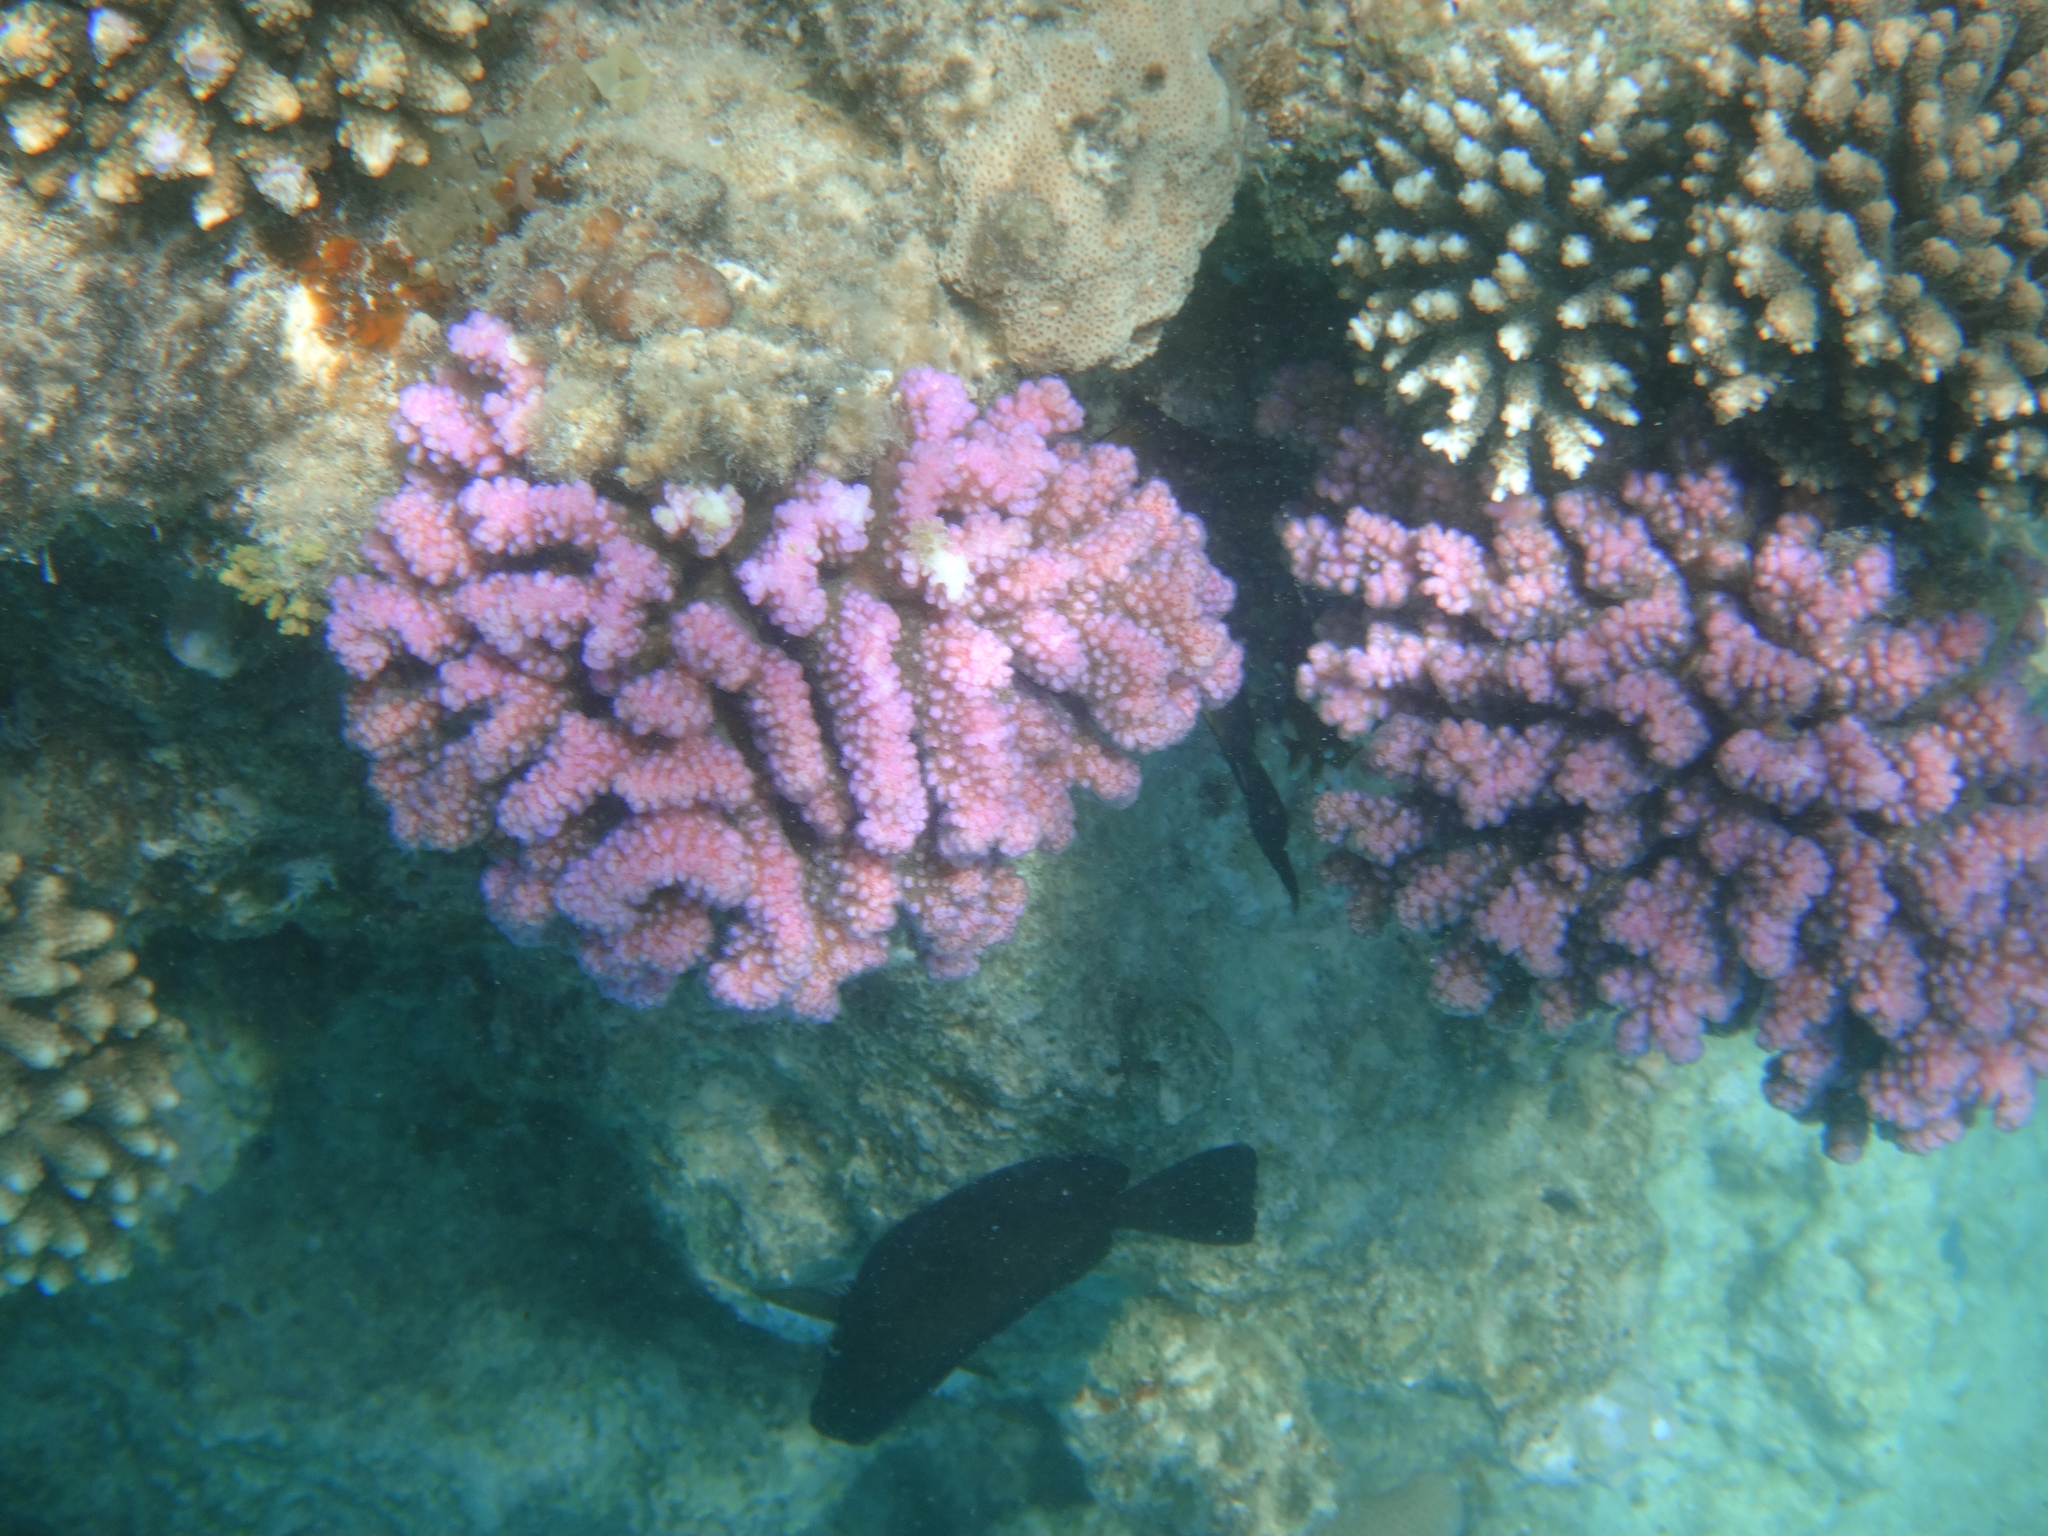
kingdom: Animalia
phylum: Cnidaria
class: Anthozoa
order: Scleractinia
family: Pocilloporidae
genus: Pocillopora
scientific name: Pocillopora verrucosa
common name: Cauliflower coral
